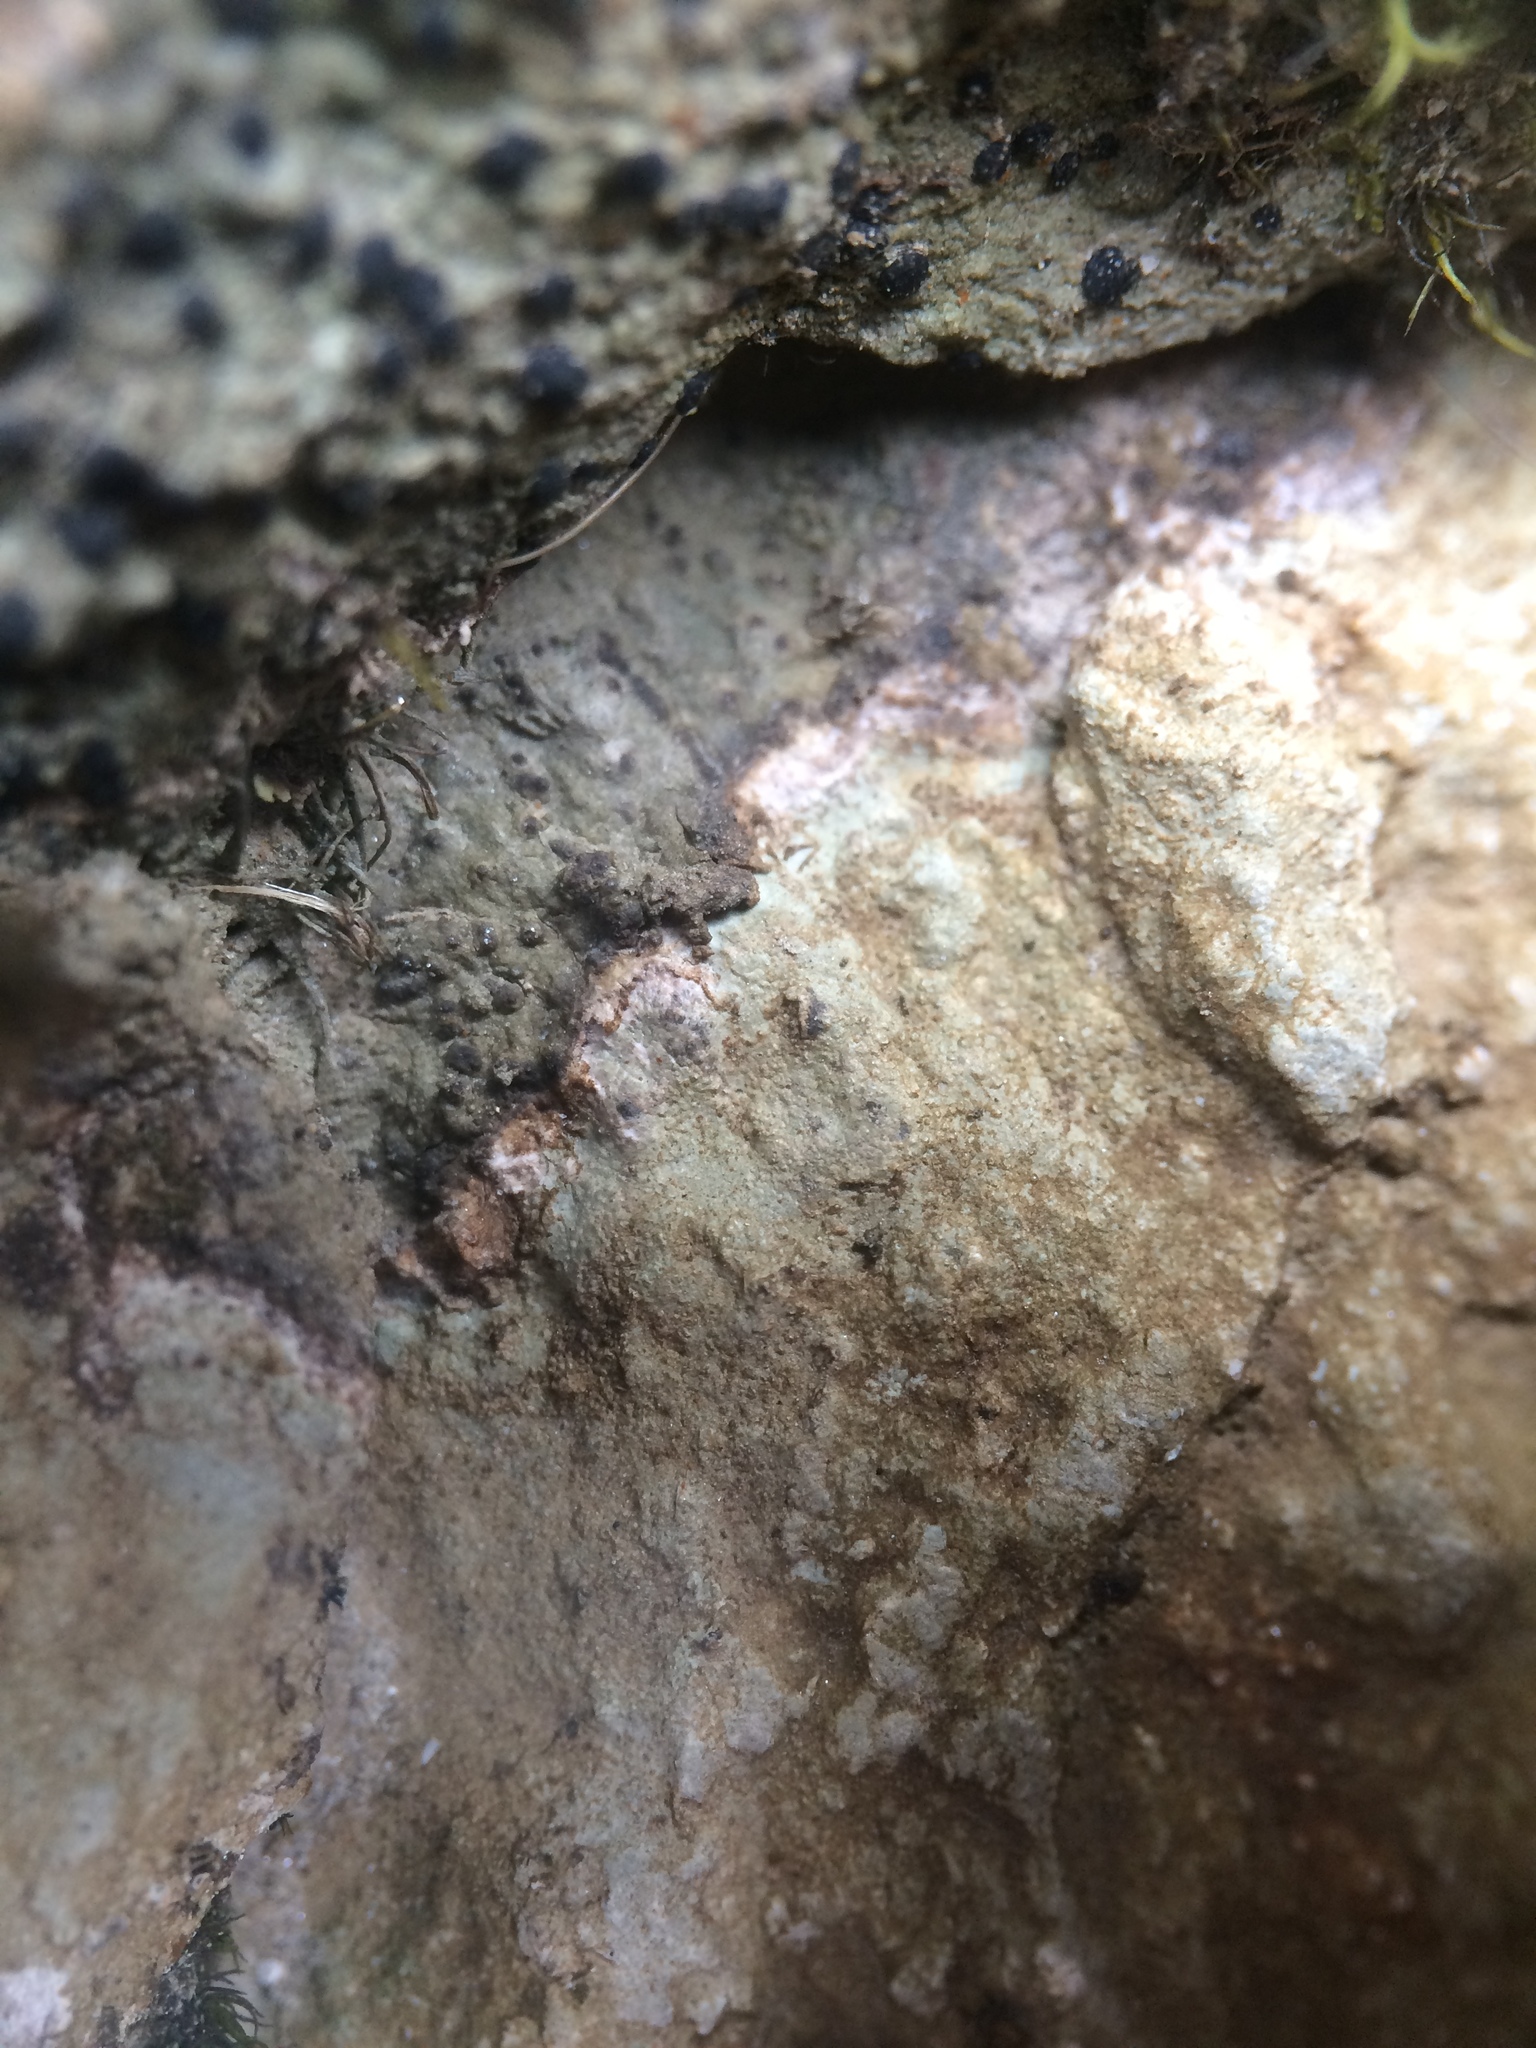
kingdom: Fungi
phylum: Ascomycota
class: Lecanoromycetes
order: Lecideales
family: Lecideaceae
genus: Porpidia
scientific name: Porpidia albocaerulescens
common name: Smokey-eyed boulder lichen
